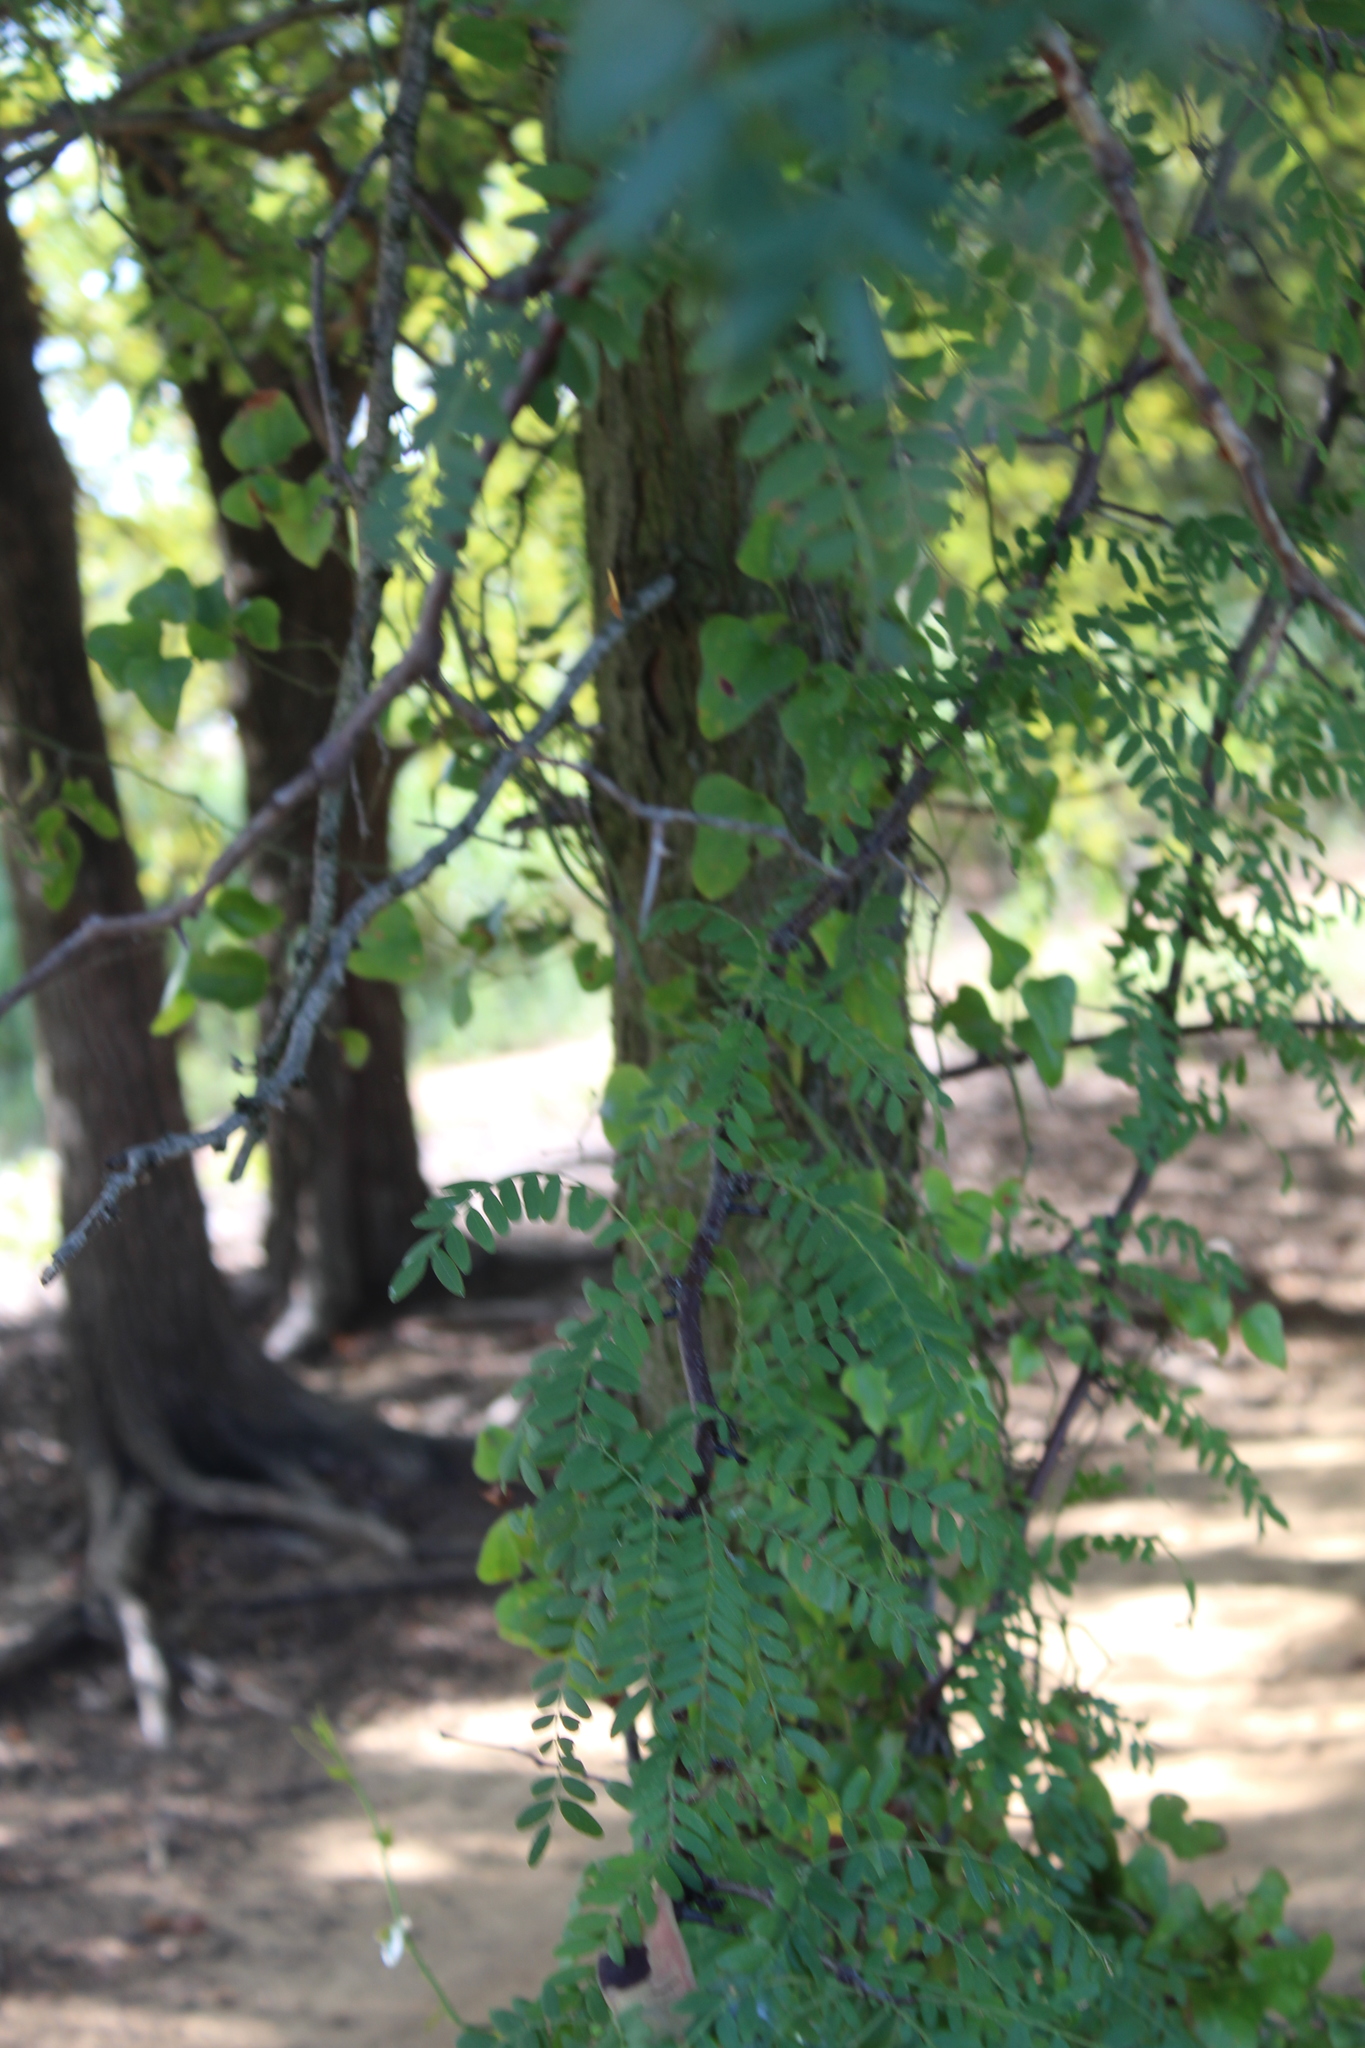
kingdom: Plantae
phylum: Tracheophyta
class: Magnoliopsida
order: Fabales
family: Fabaceae
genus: Gleditsia
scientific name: Gleditsia triacanthos
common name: Common honeylocust
